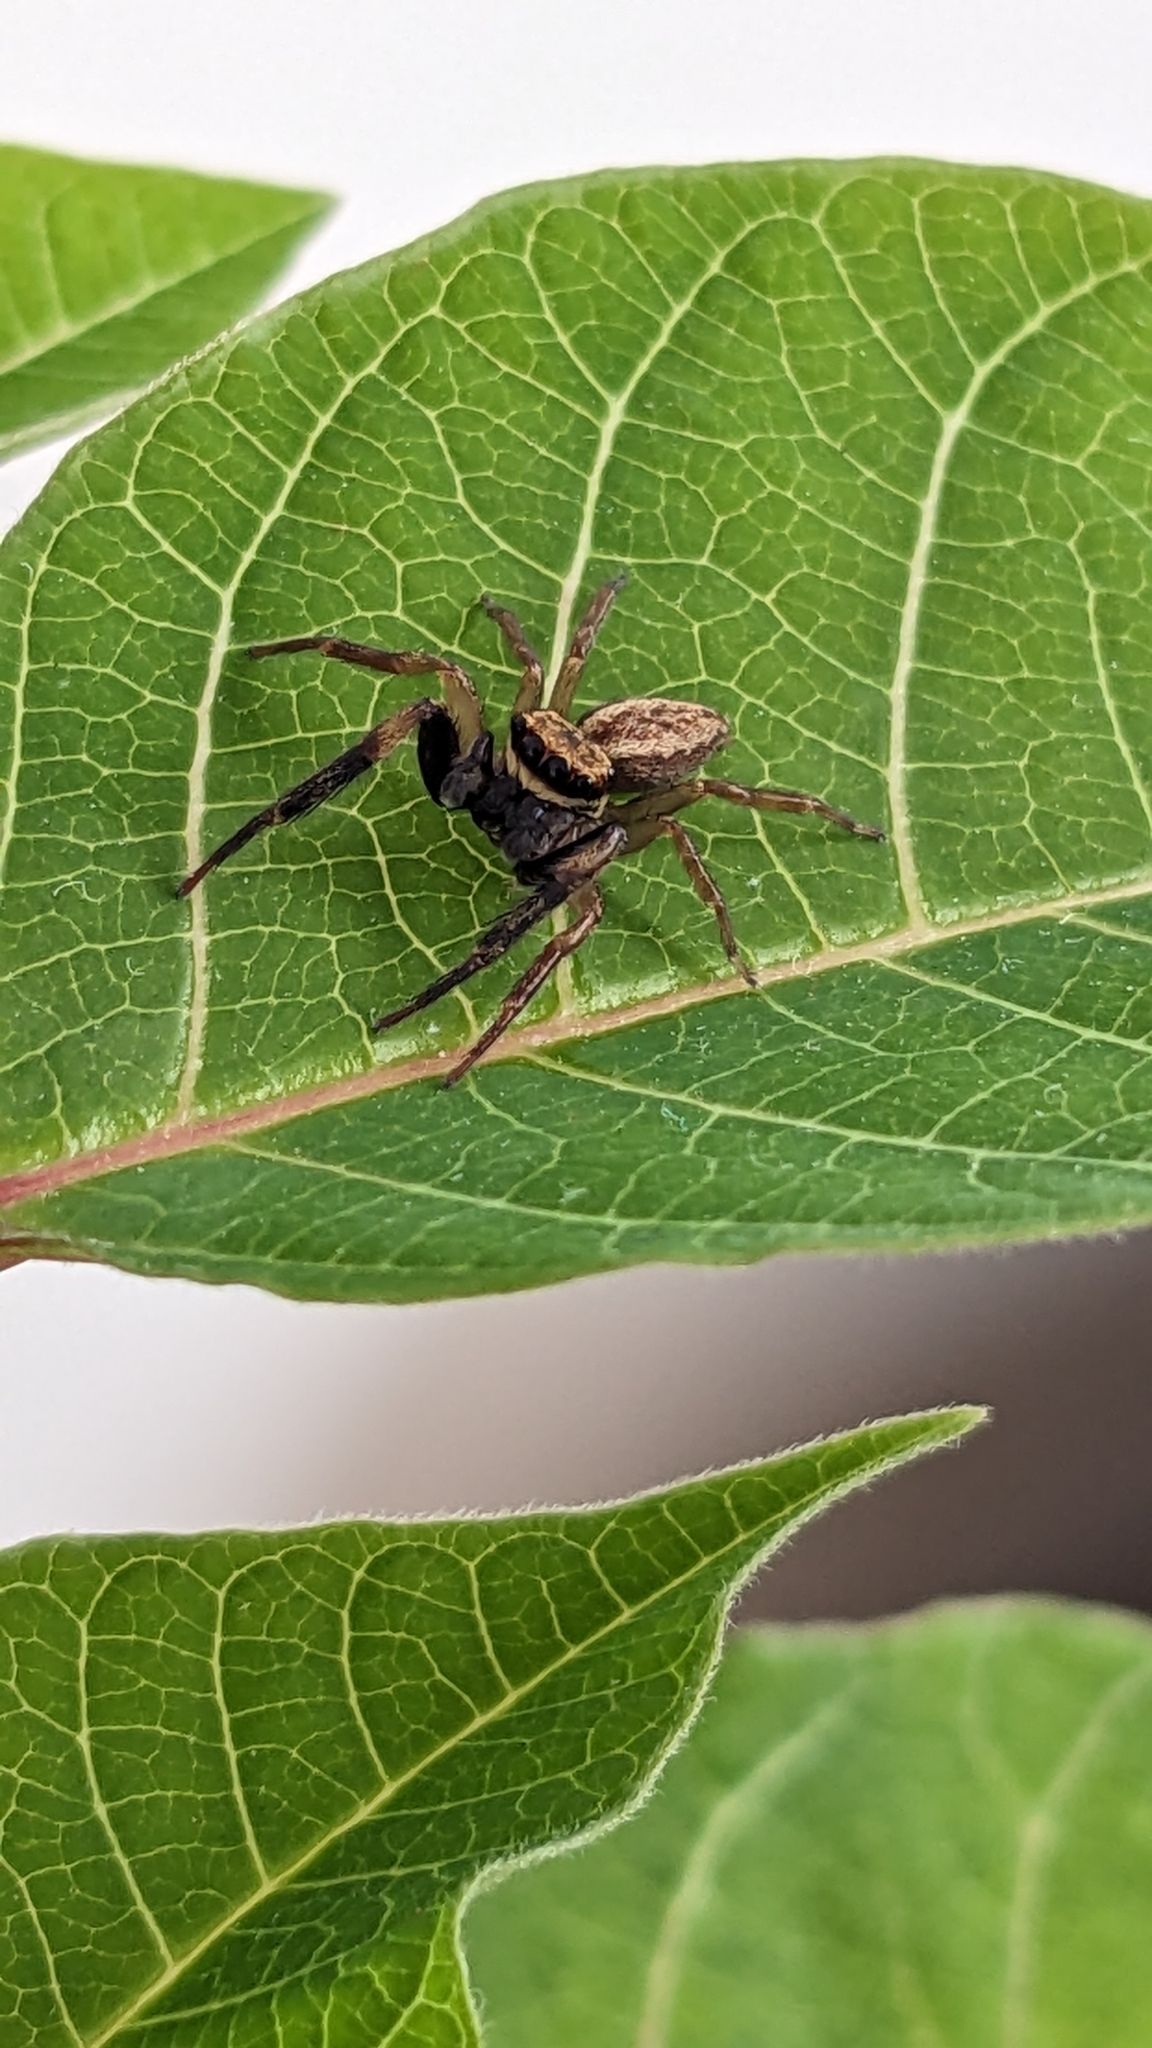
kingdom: Animalia
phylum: Arthropoda
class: Arachnida
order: Araneae
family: Salticidae
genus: Trite
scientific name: Trite auricoma
